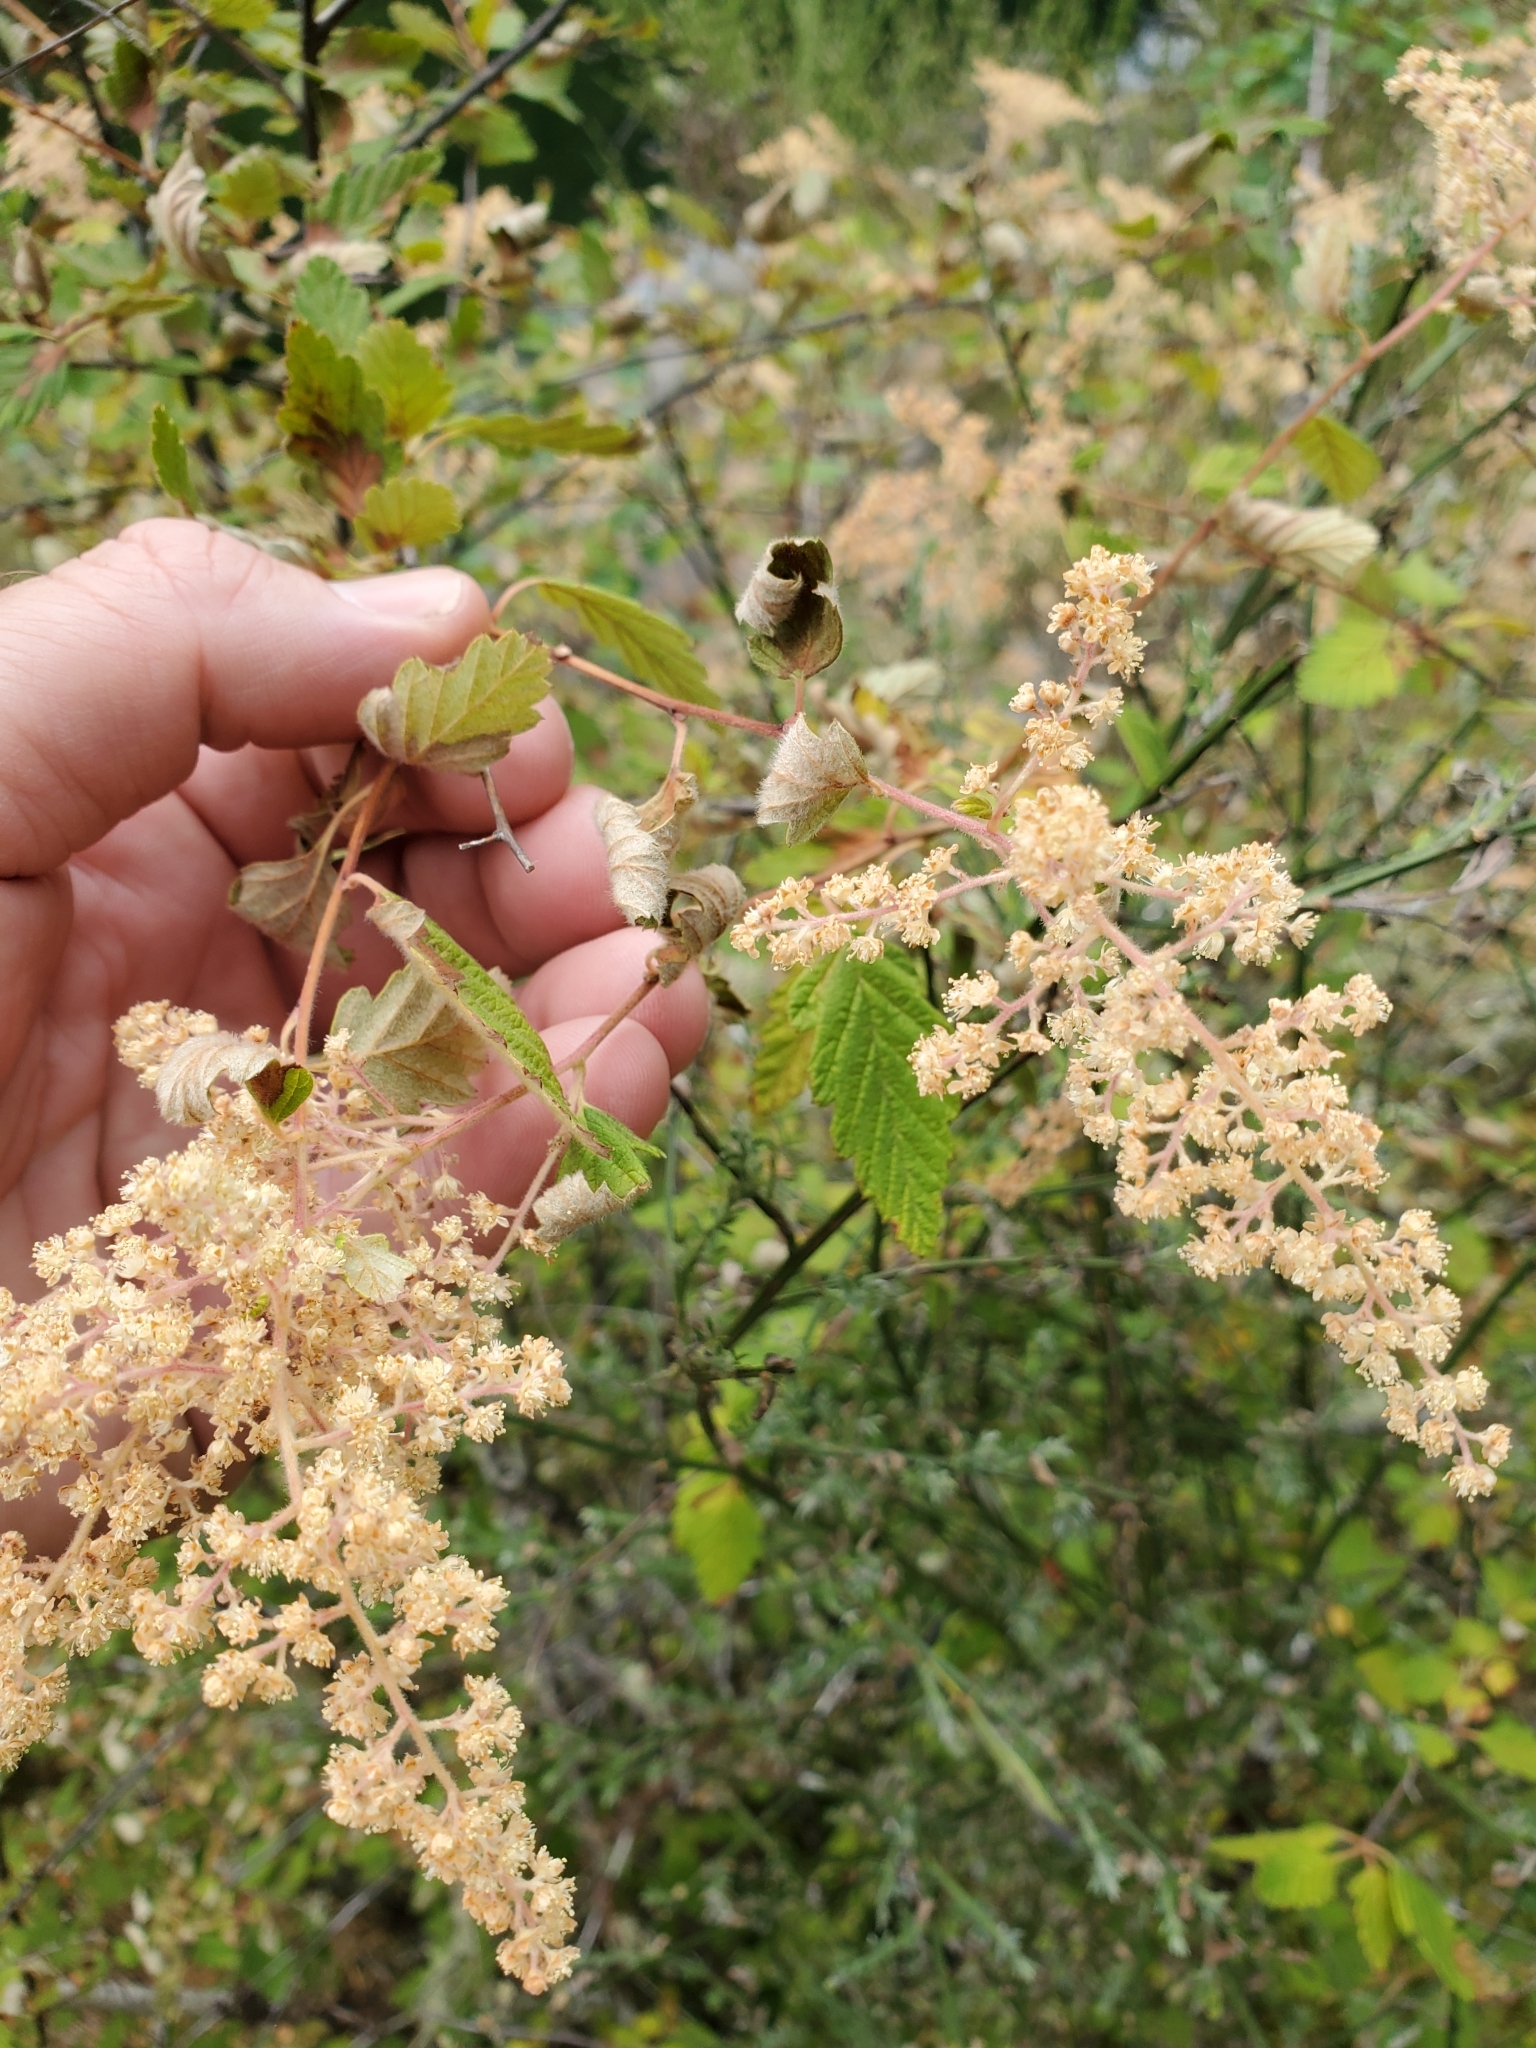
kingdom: Plantae
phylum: Tracheophyta
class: Magnoliopsida
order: Rosales
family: Rosaceae
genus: Holodiscus
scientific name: Holodiscus discolor
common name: Oceanspray
